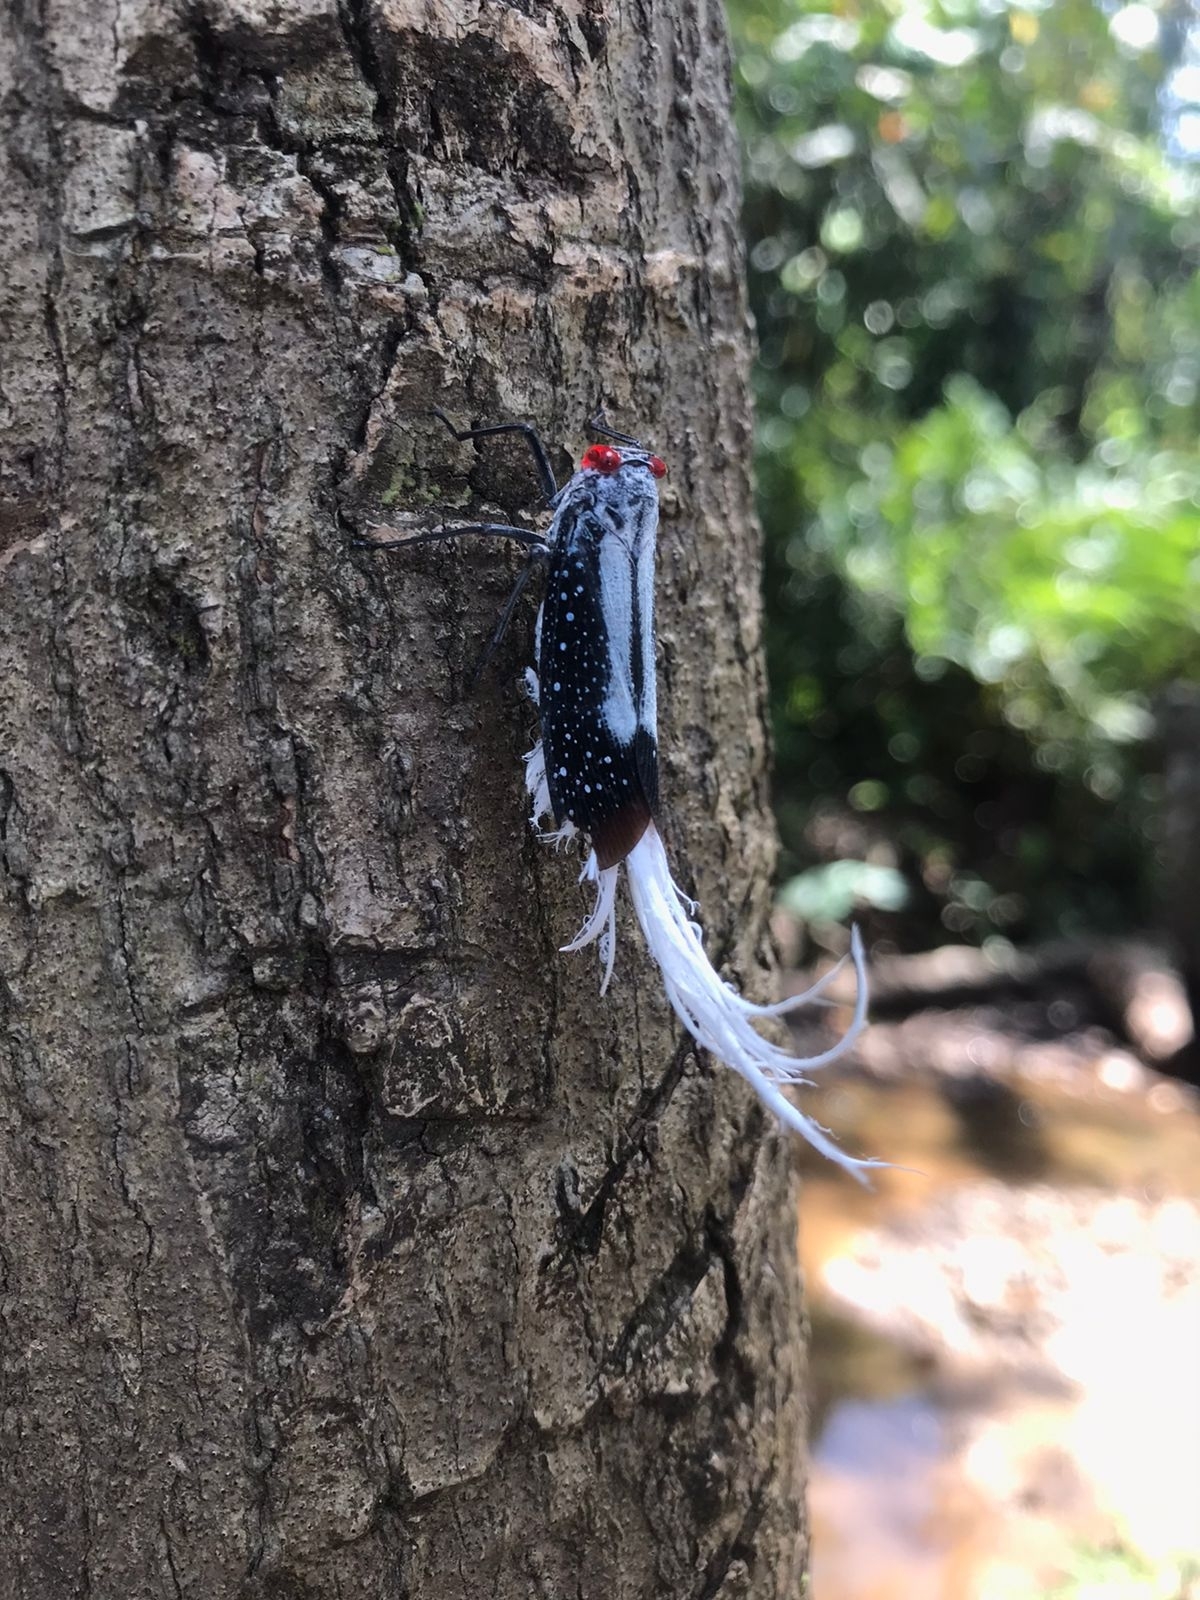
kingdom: Animalia
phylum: Arthropoda
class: Insecta
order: Hemiptera
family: Fulgoridae
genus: Lystra
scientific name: Lystra lanata
